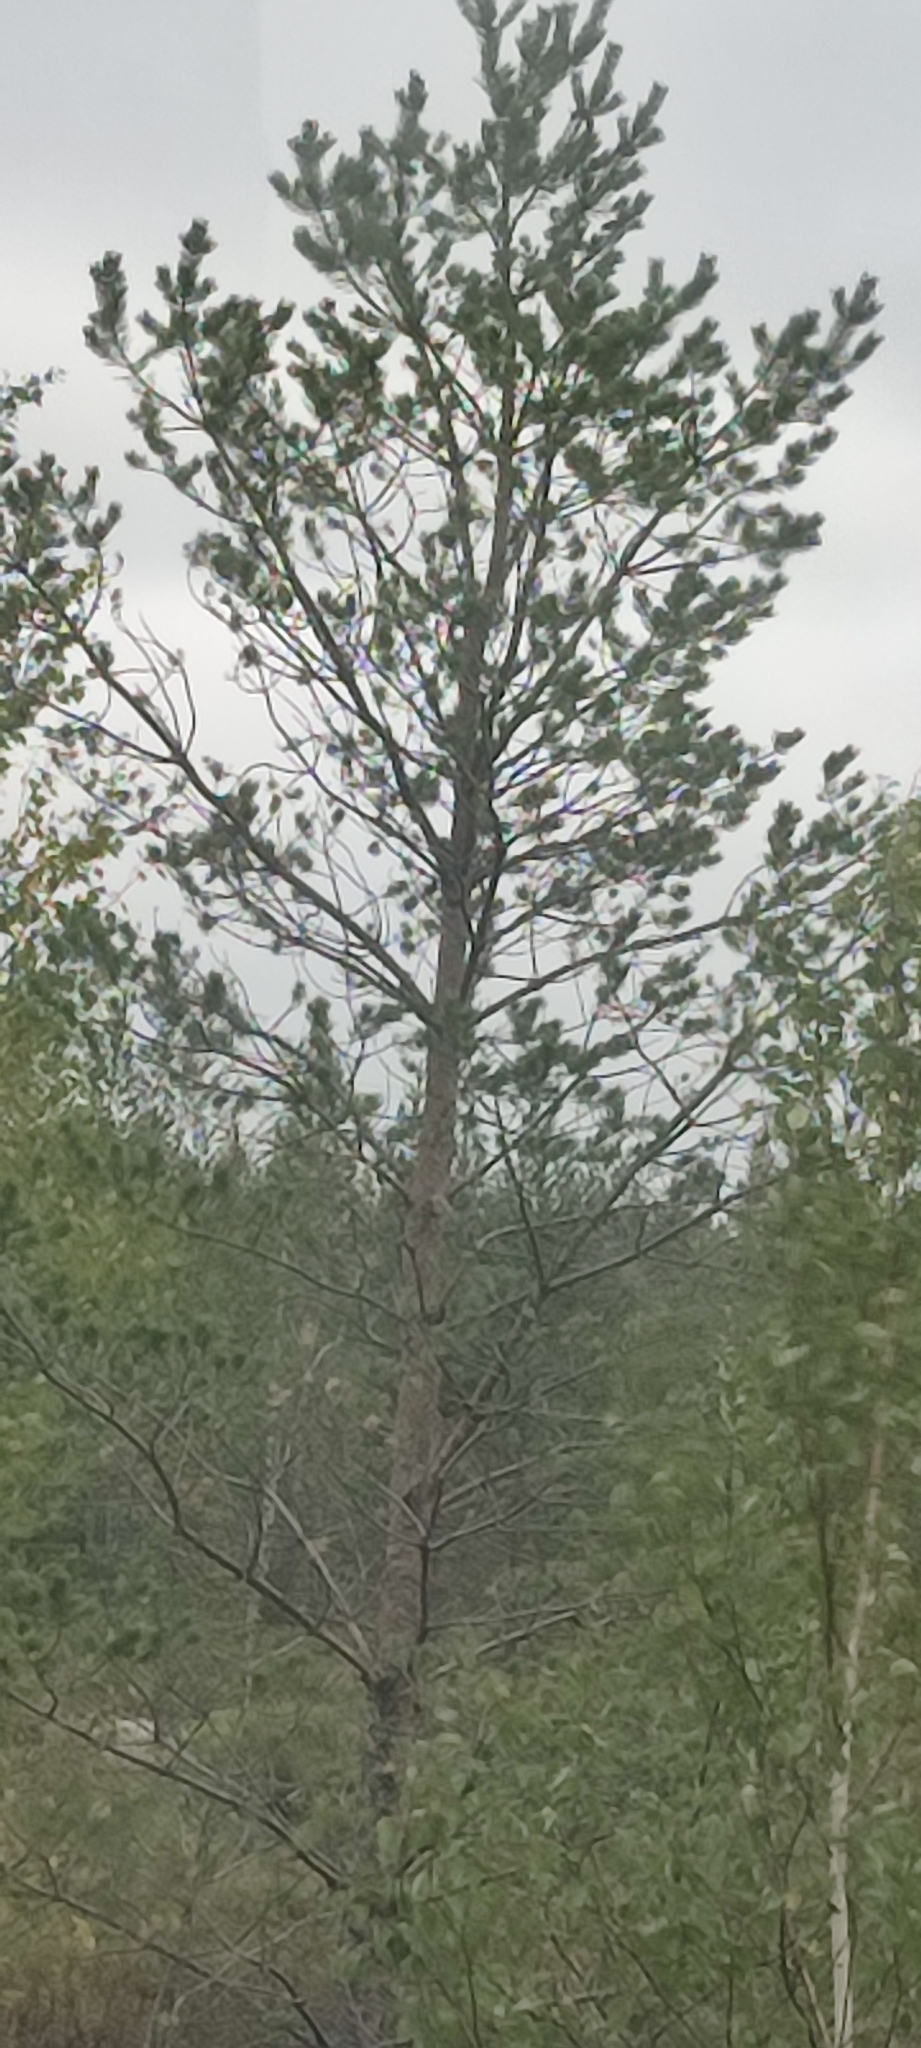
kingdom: Plantae
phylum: Tracheophyta
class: Pinopsida
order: Pinales
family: Pinaceae
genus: Pinus
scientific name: Pinus sylvestris
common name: Scots pine
